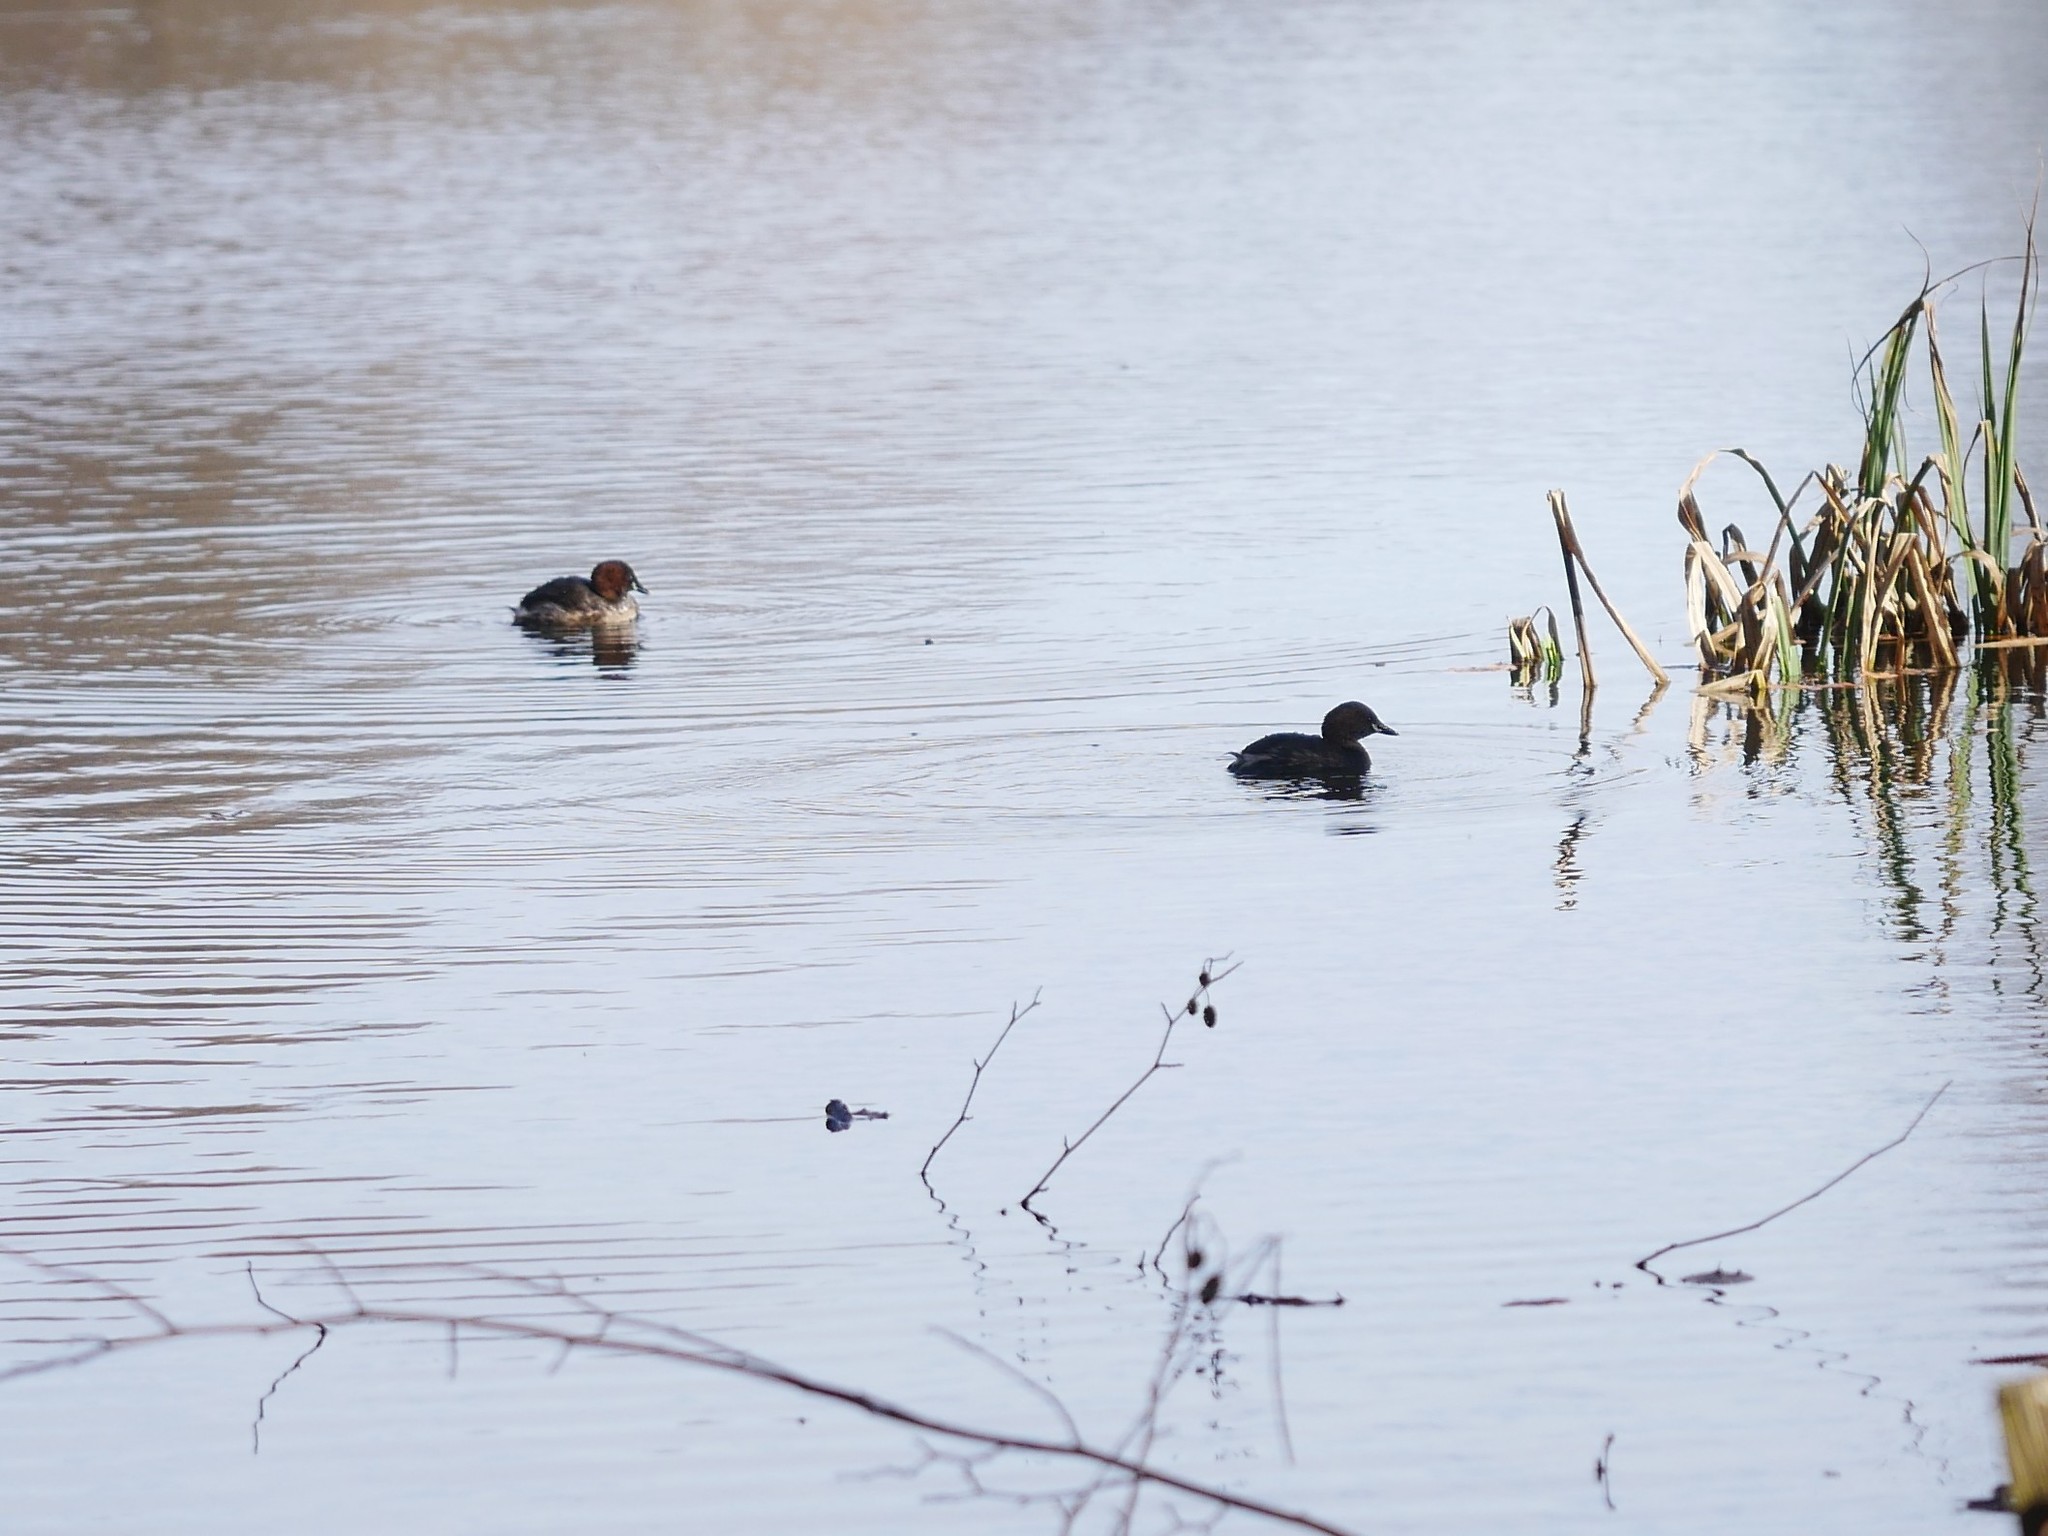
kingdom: Animalia
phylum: Chordata
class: Aves
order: Podicipediformes
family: Podicipedidae
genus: Tachybaptus
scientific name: Tachybaptus ruficollis
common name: Little grebe
